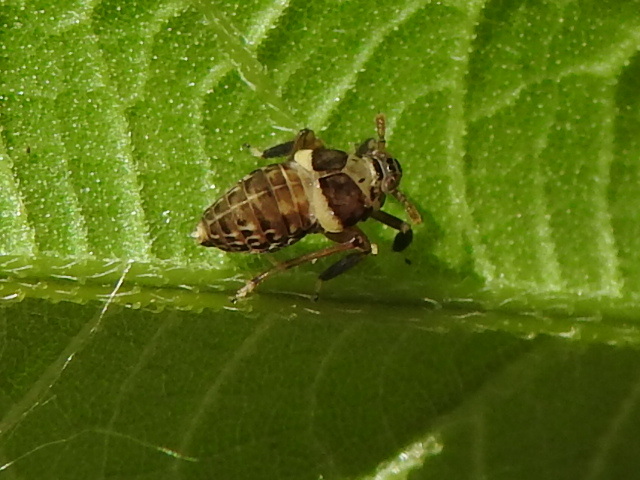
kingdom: Animalia
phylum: Arthropoda
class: Insecta
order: Hemiptera
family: Delphacidae
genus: Pissonotus
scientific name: Pissonotus flabellatus
